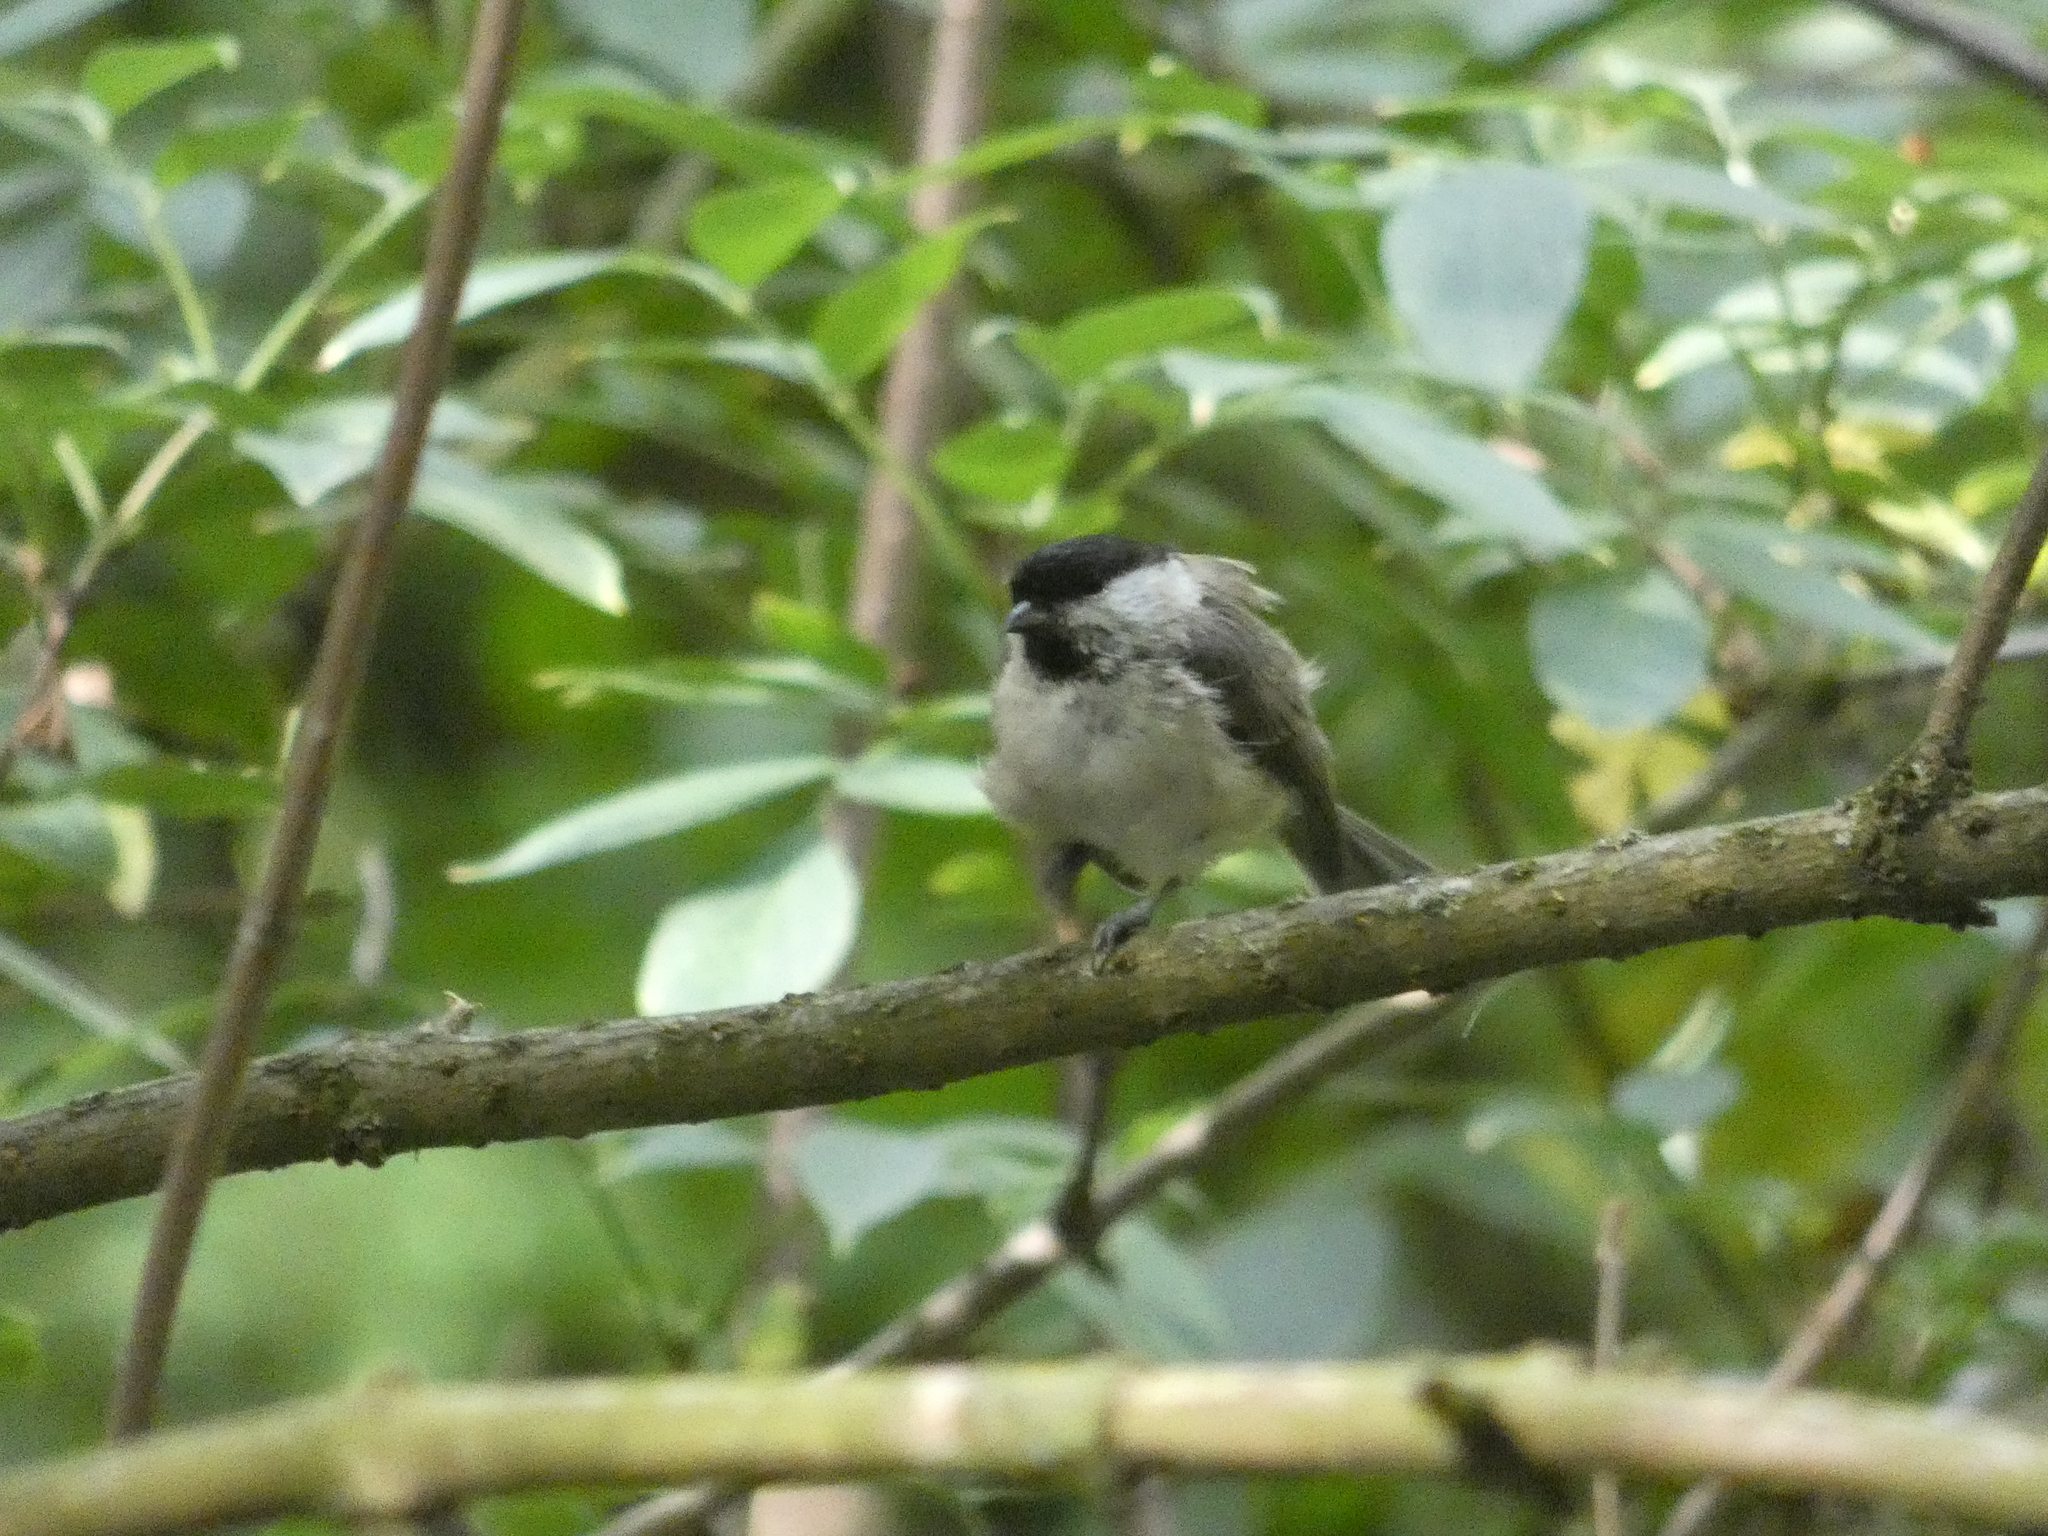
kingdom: Animalia
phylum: Chordata
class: Aves
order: Passeriformes
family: Paridae
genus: Poecile
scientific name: Poecile palustris
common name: Marsh tit
